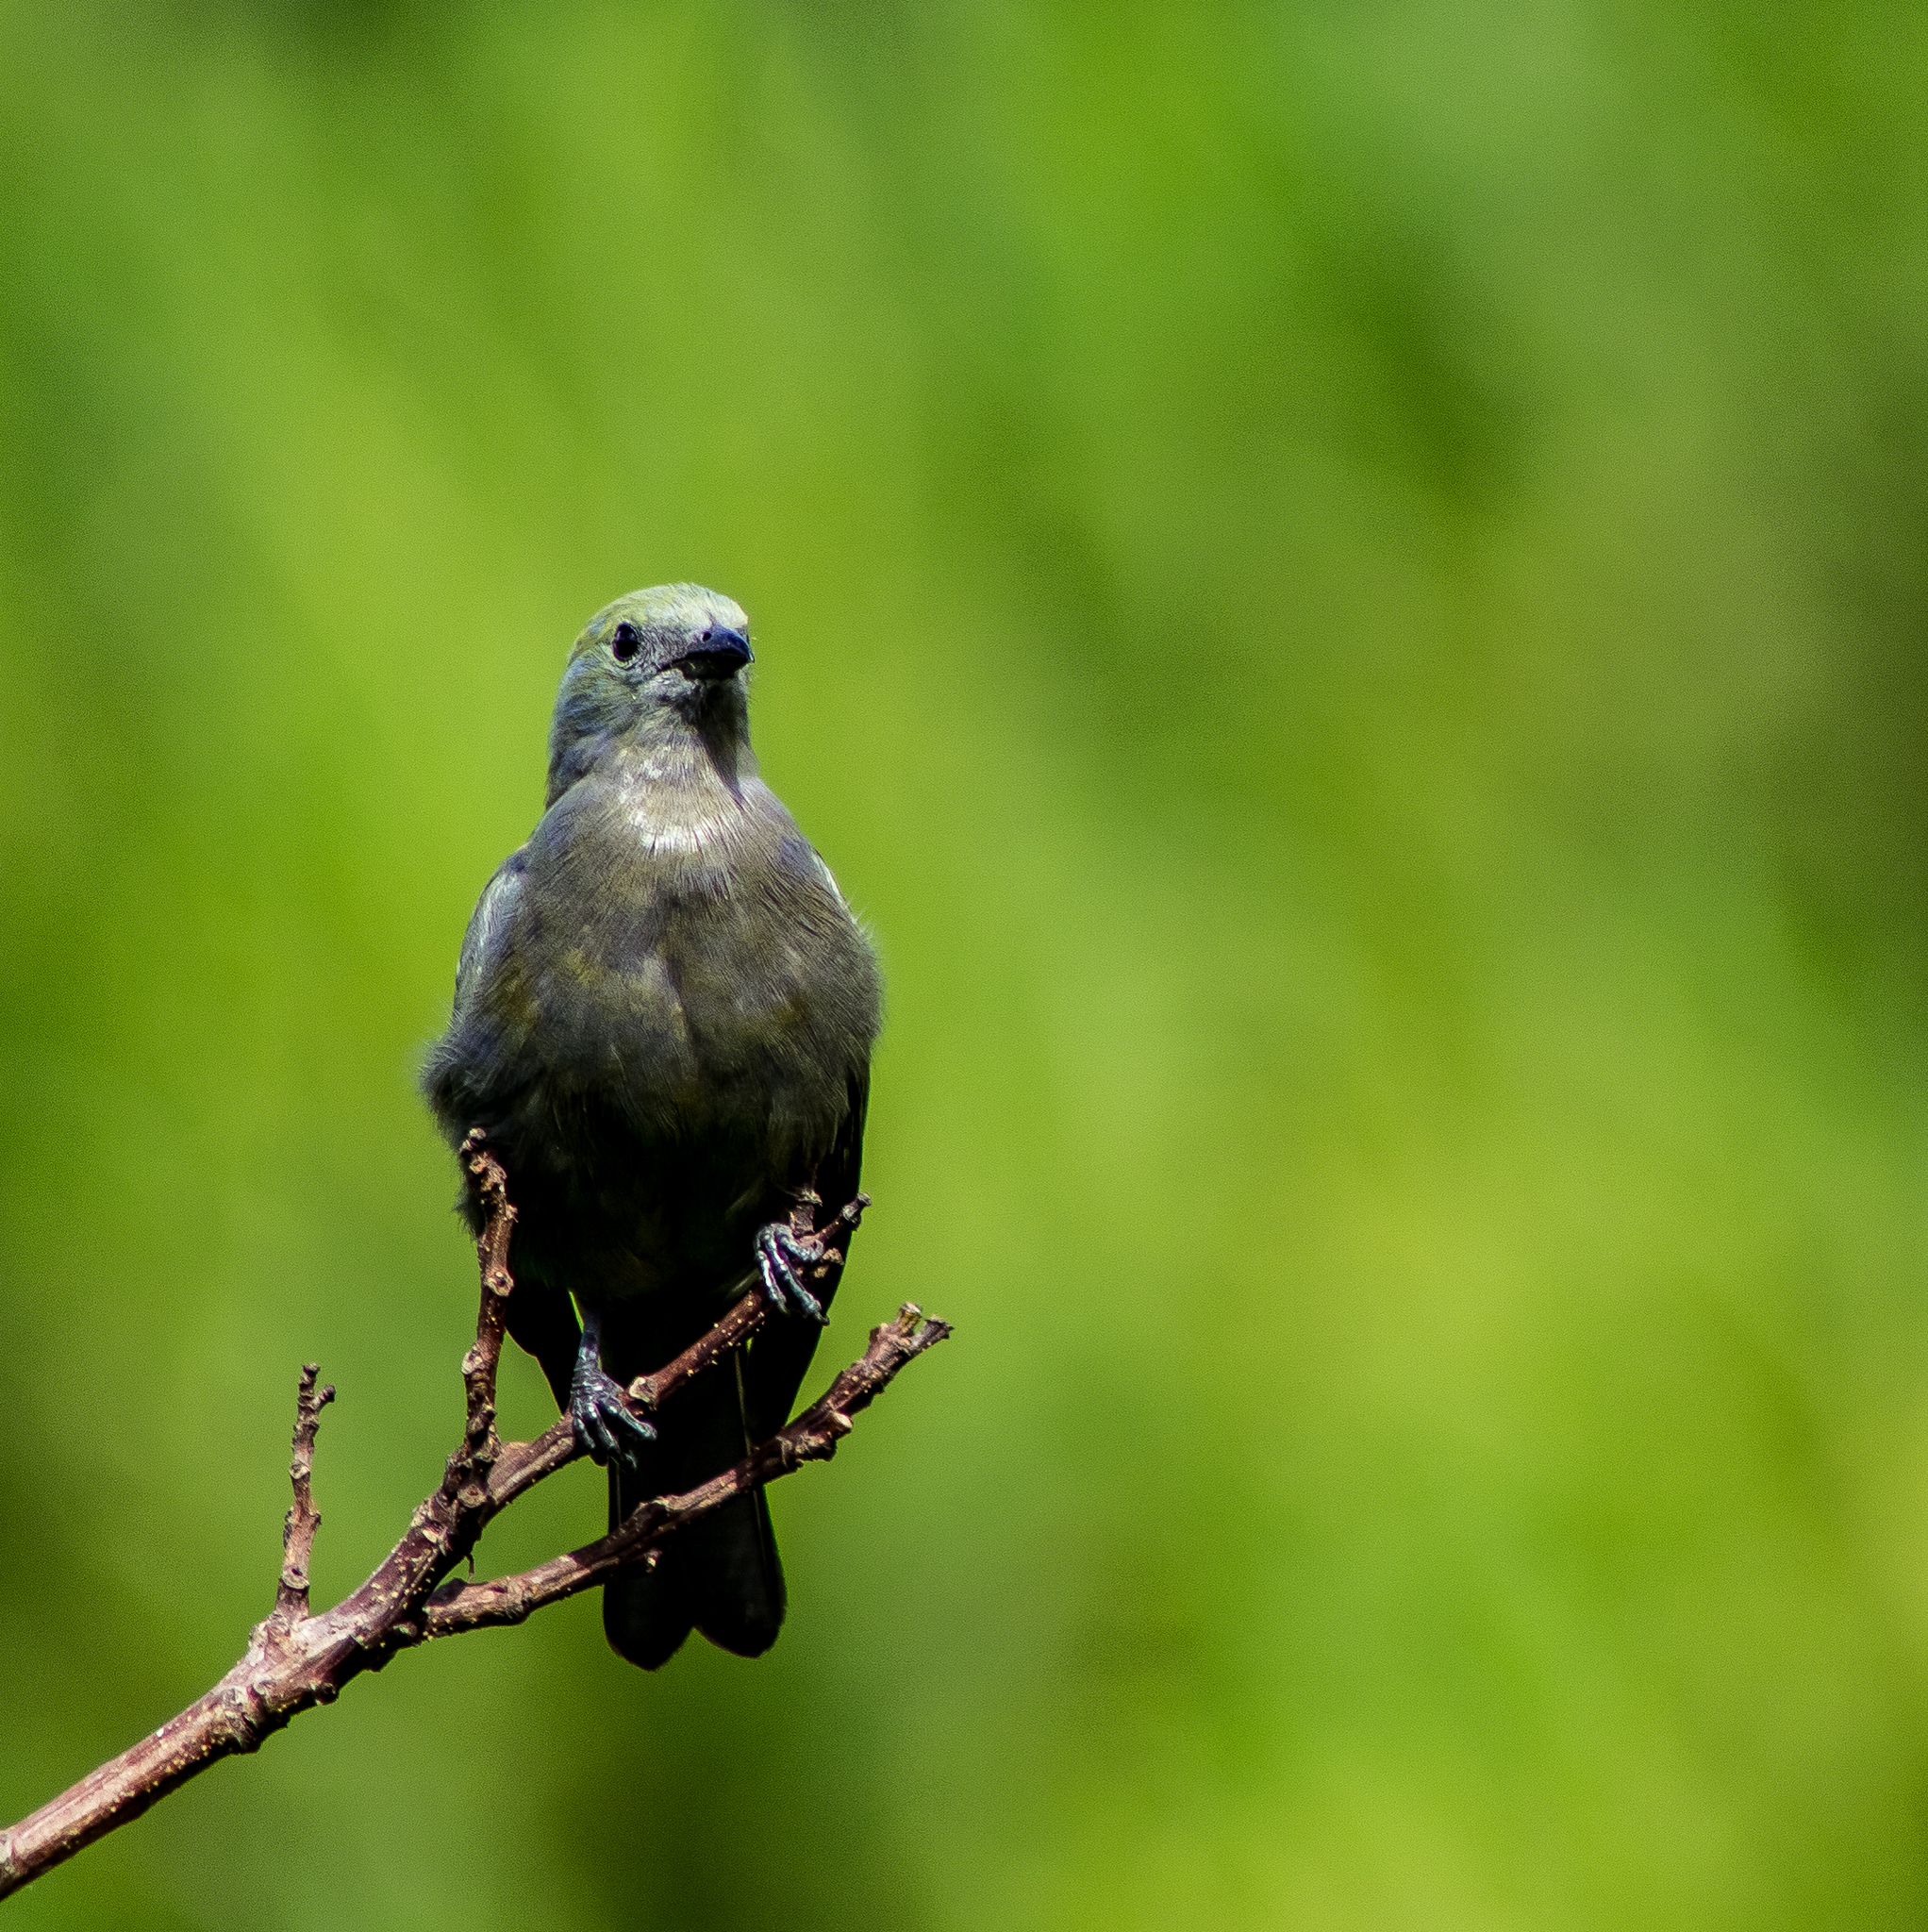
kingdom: Animalia
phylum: Chordata
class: Aves
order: Passeriformes
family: Thraupidae
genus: Thraupis
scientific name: Thraupis palmarum
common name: Palm tanager
